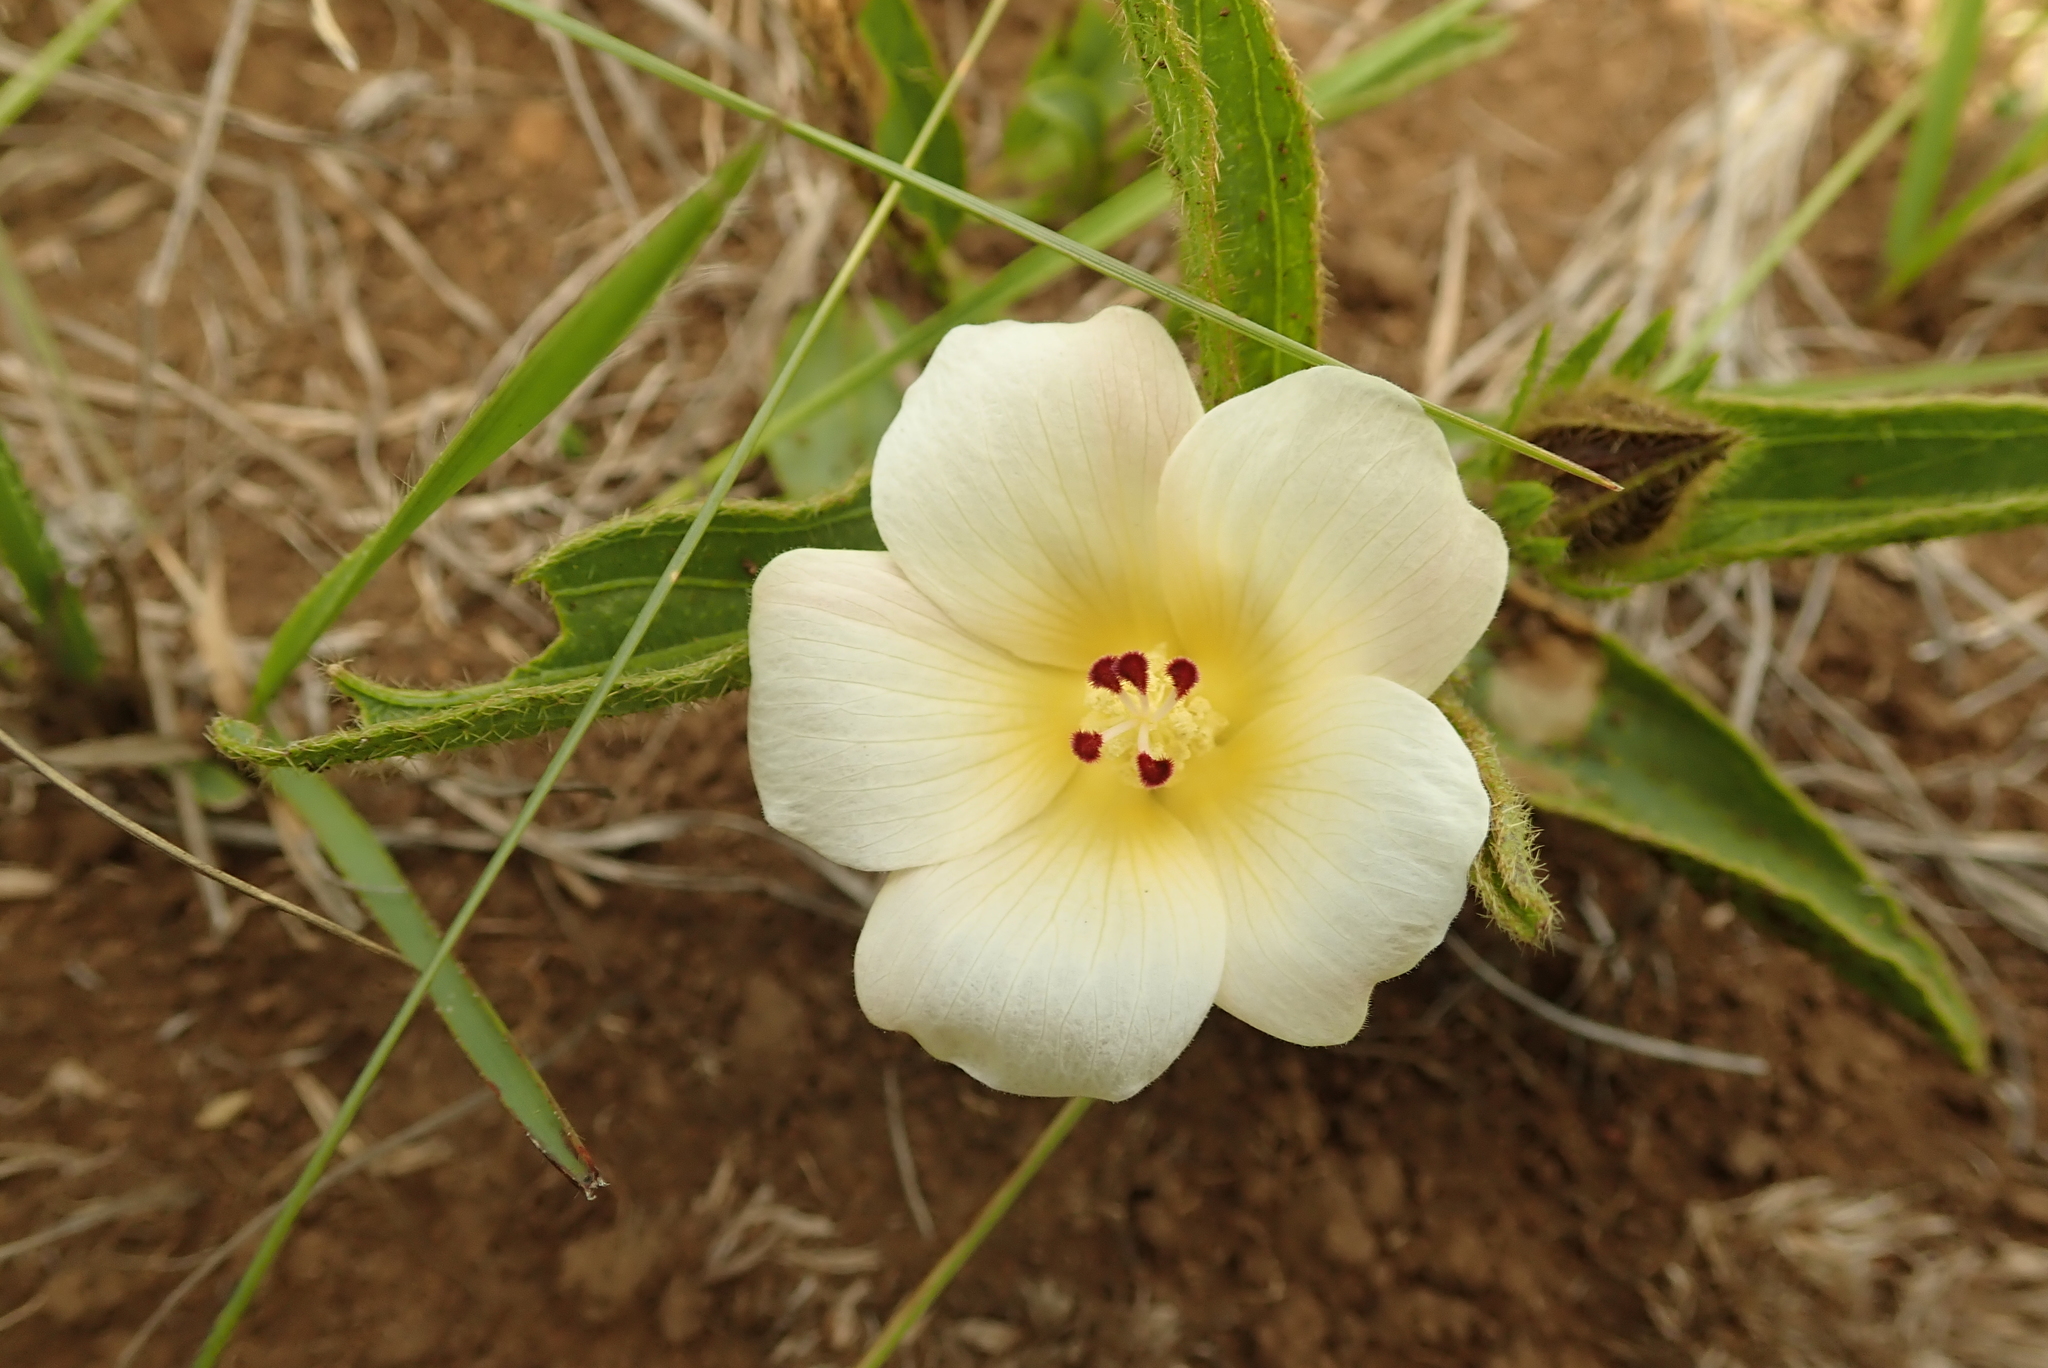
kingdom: Plantae
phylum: Tracheophyta
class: Magnoliopsida
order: Malvales
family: Malvaceae
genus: Hibiscus
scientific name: Hibiscus aethiopicus
